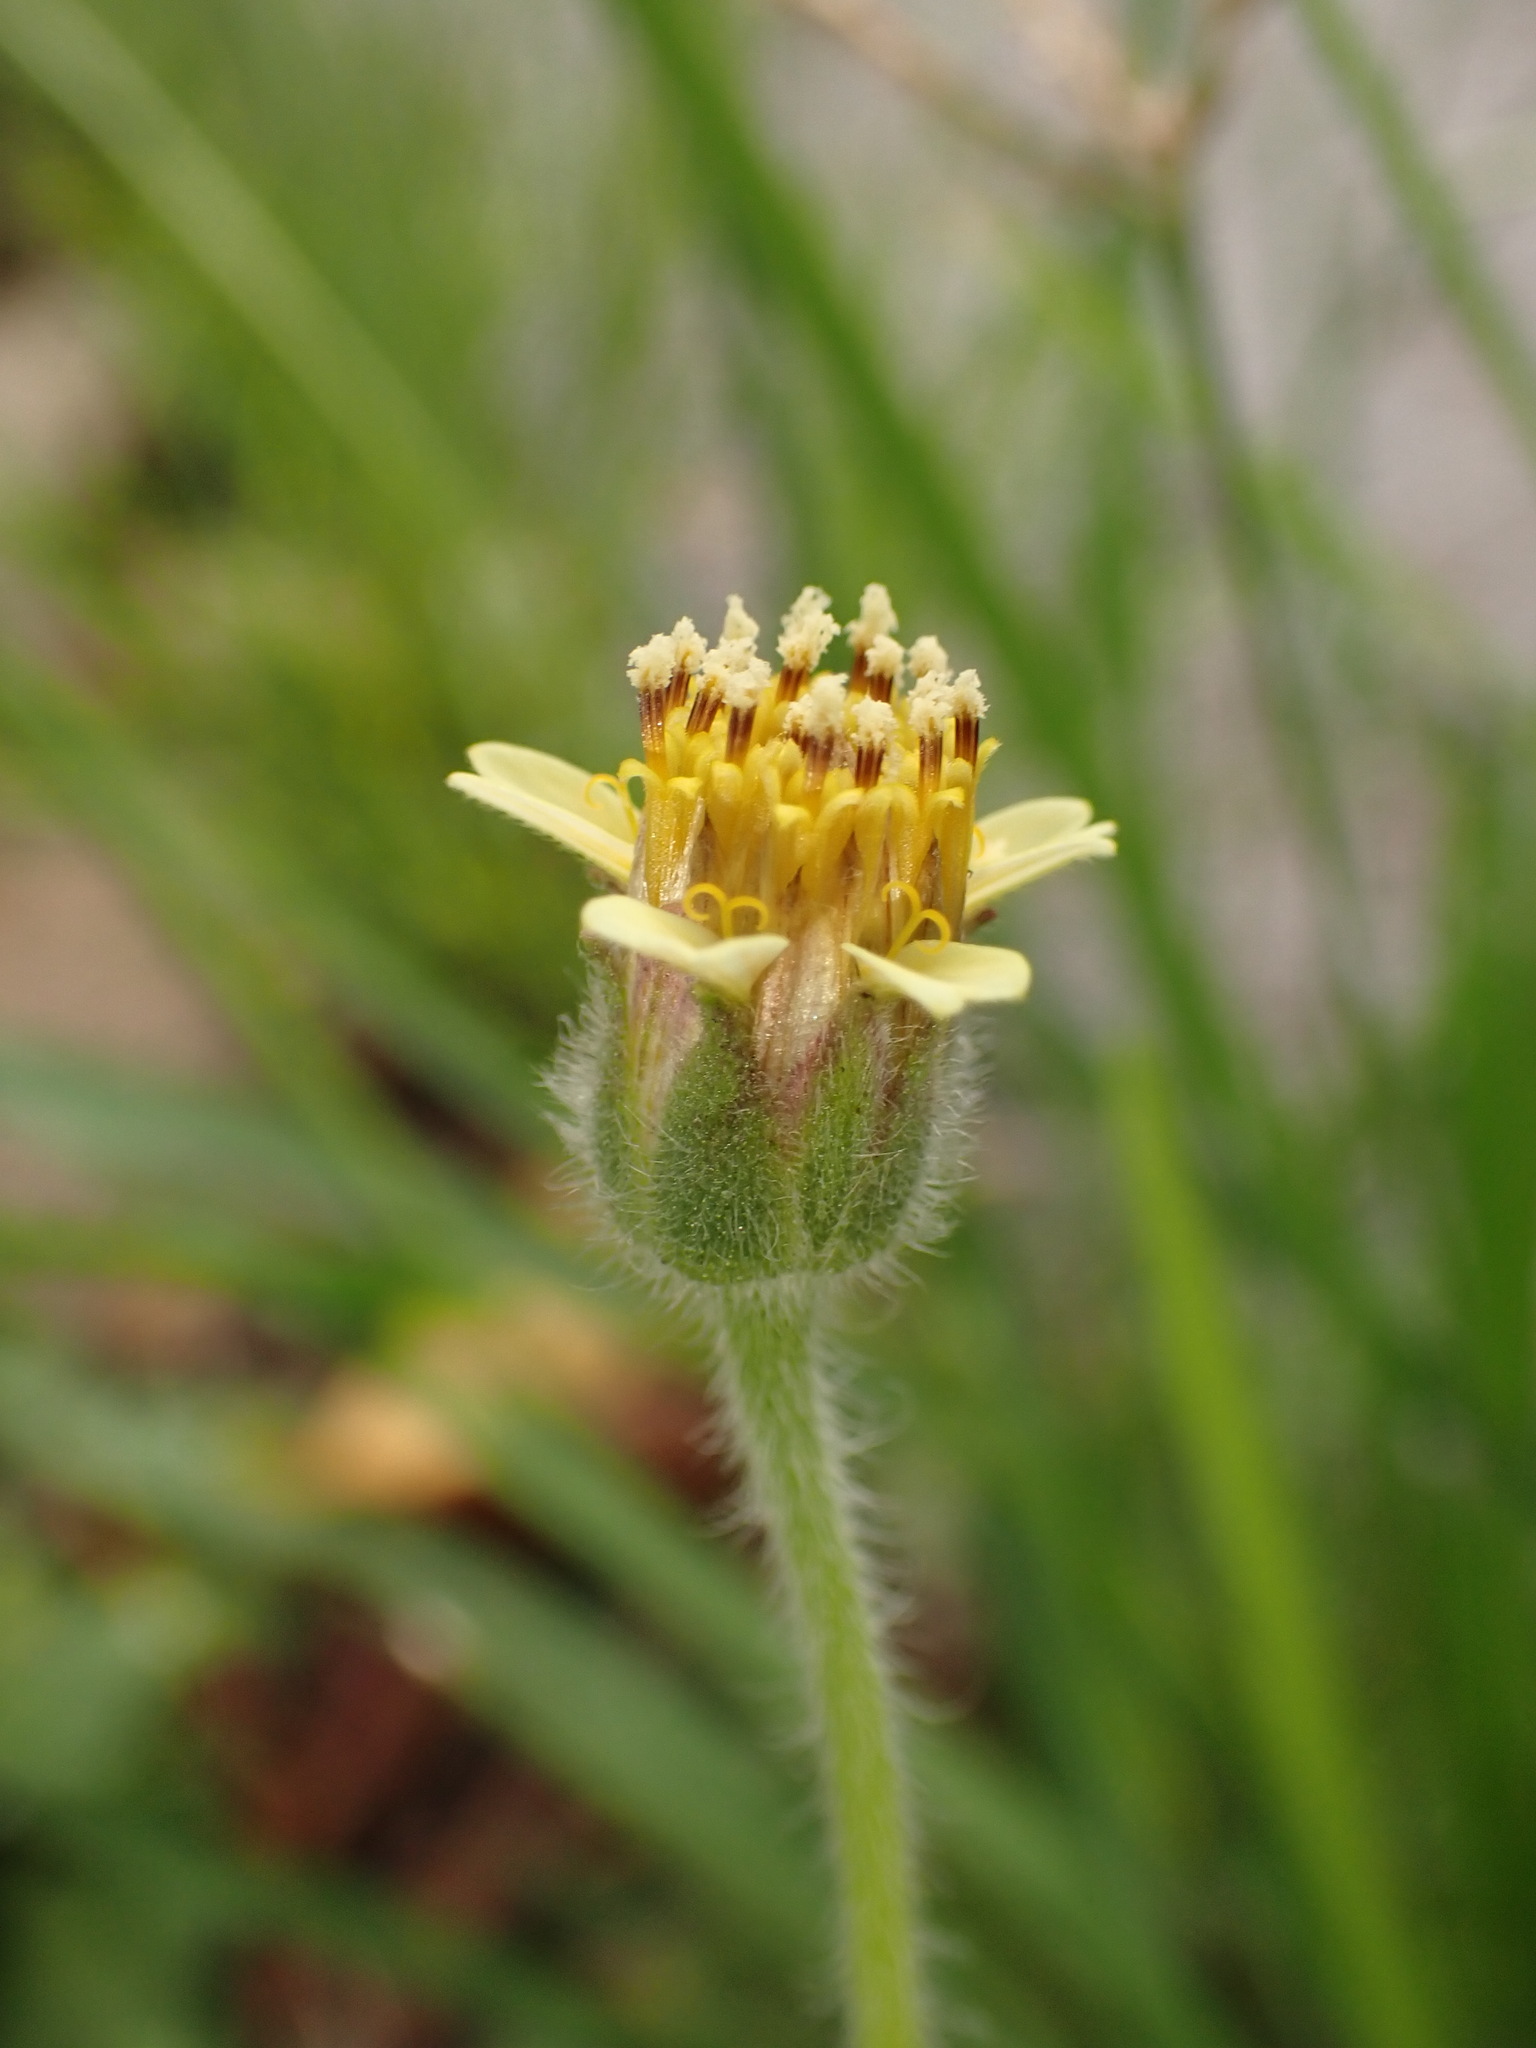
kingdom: Plantae
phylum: Tracheophyta
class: Magnoliopsida
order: Asterales
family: Asteraceae
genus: Tridax
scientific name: Tridax procumbens
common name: Coatbuttons
